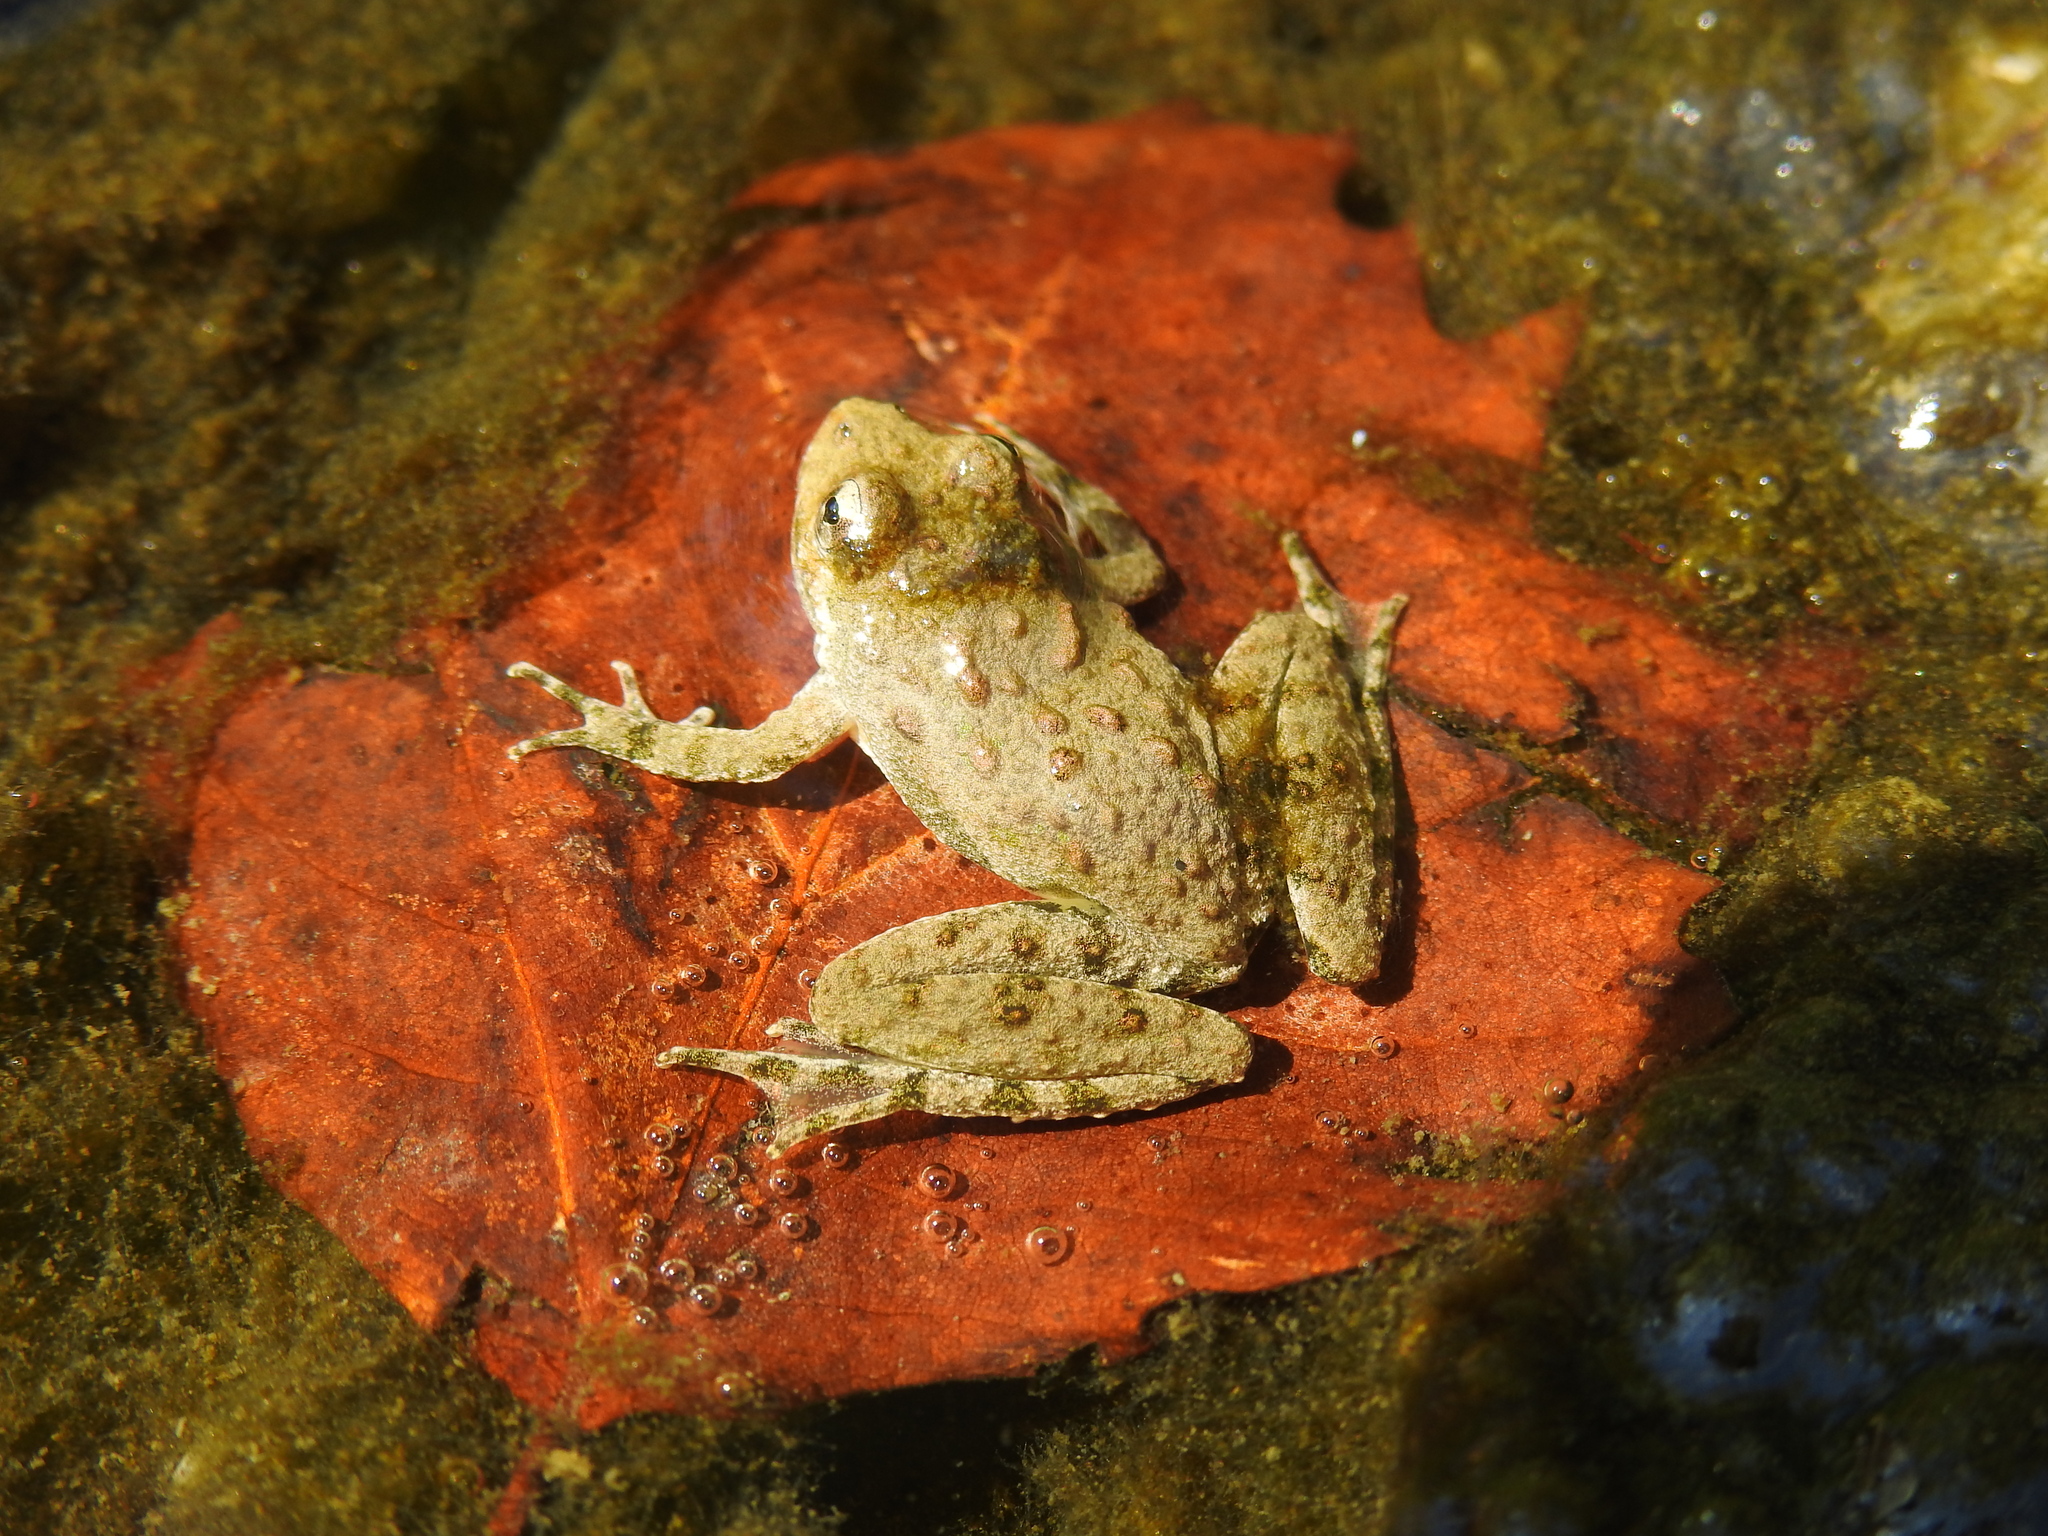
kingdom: Animalia
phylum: Chordata
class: Amphibia
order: Anura
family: Hylidae
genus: Acris
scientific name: Acris blanchardi
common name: Blanchard's cricket frog
